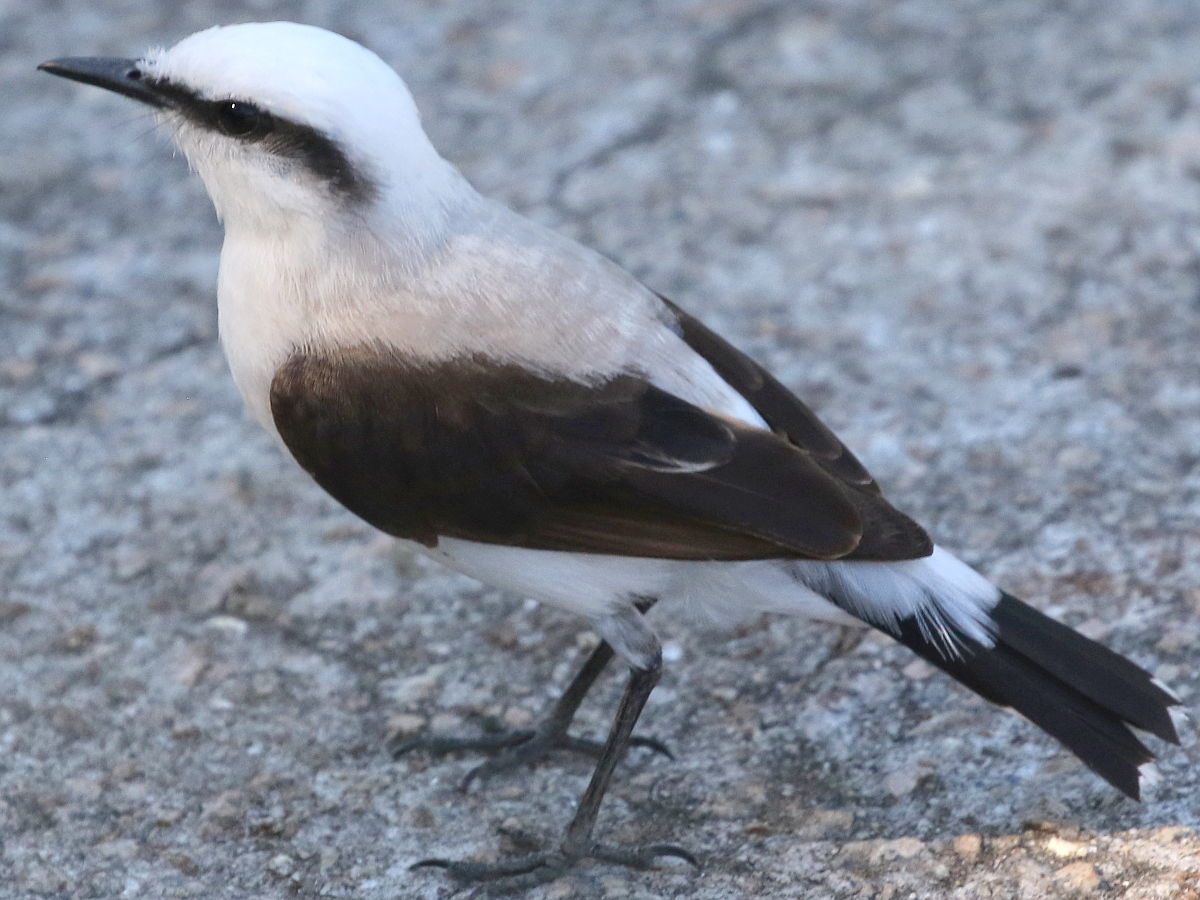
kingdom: Animalia
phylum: Chordata
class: Aves
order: Passeriformes
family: Tyrannidae
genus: Fluvicola
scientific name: Fluvicola nengeta
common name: Masked water tyrant
